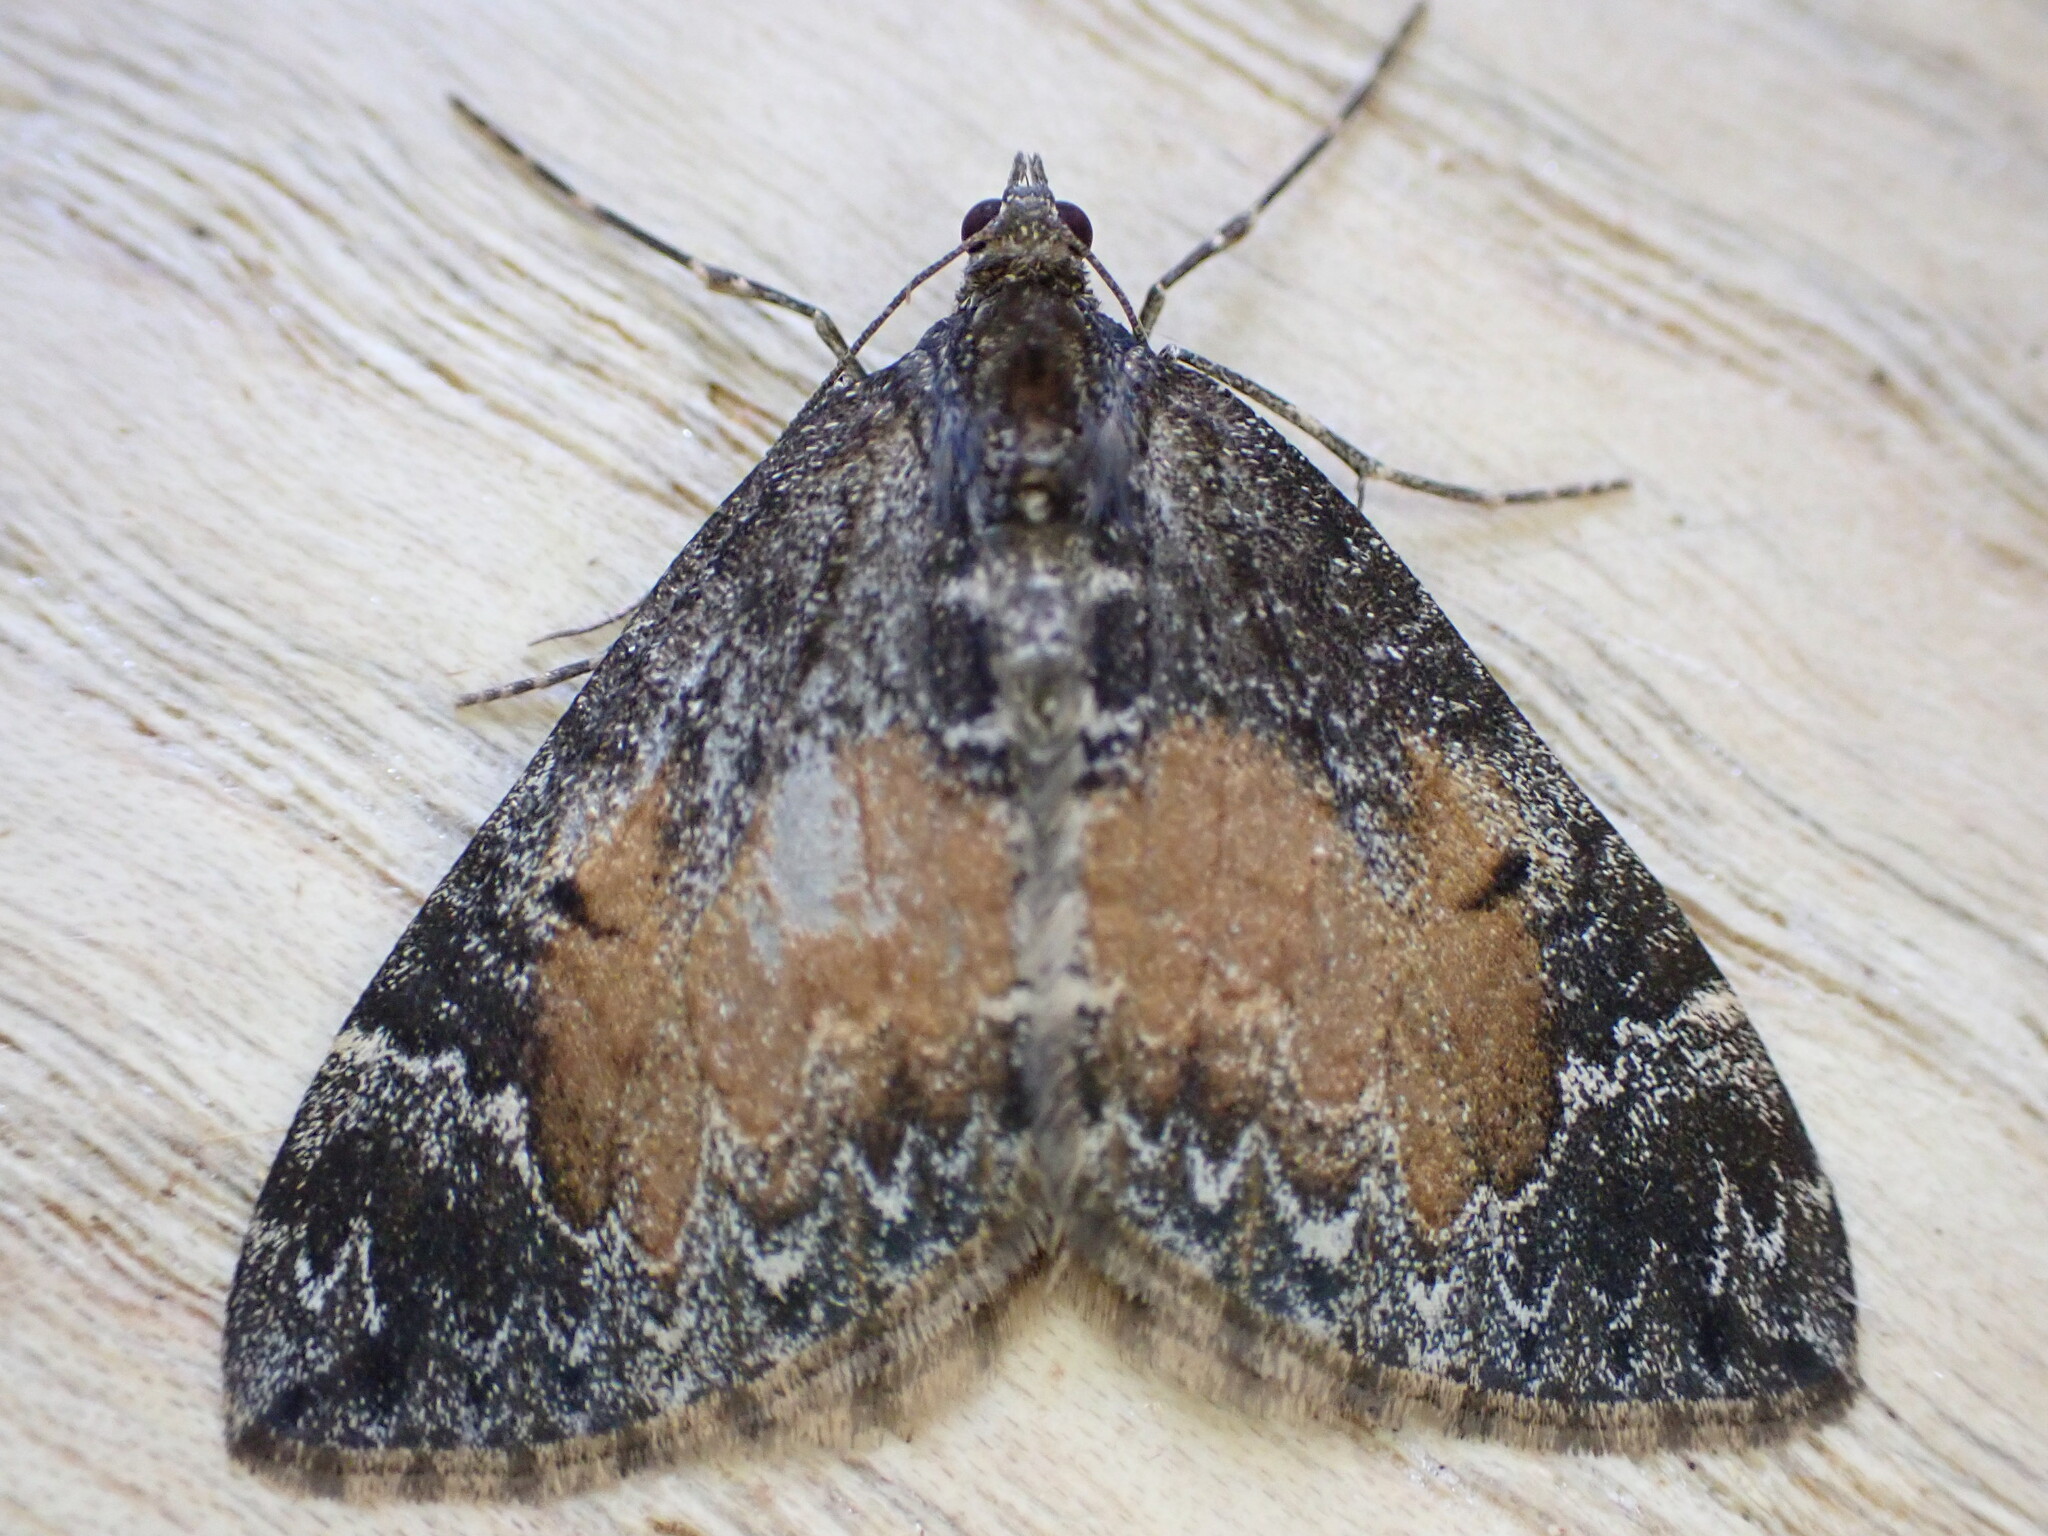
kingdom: Animalia
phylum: Arthropoda
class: Insecta
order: Lepidoptera
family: Geometridae
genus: Dysstroma
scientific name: Dysstroma truncata
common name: Common marbled carpet
